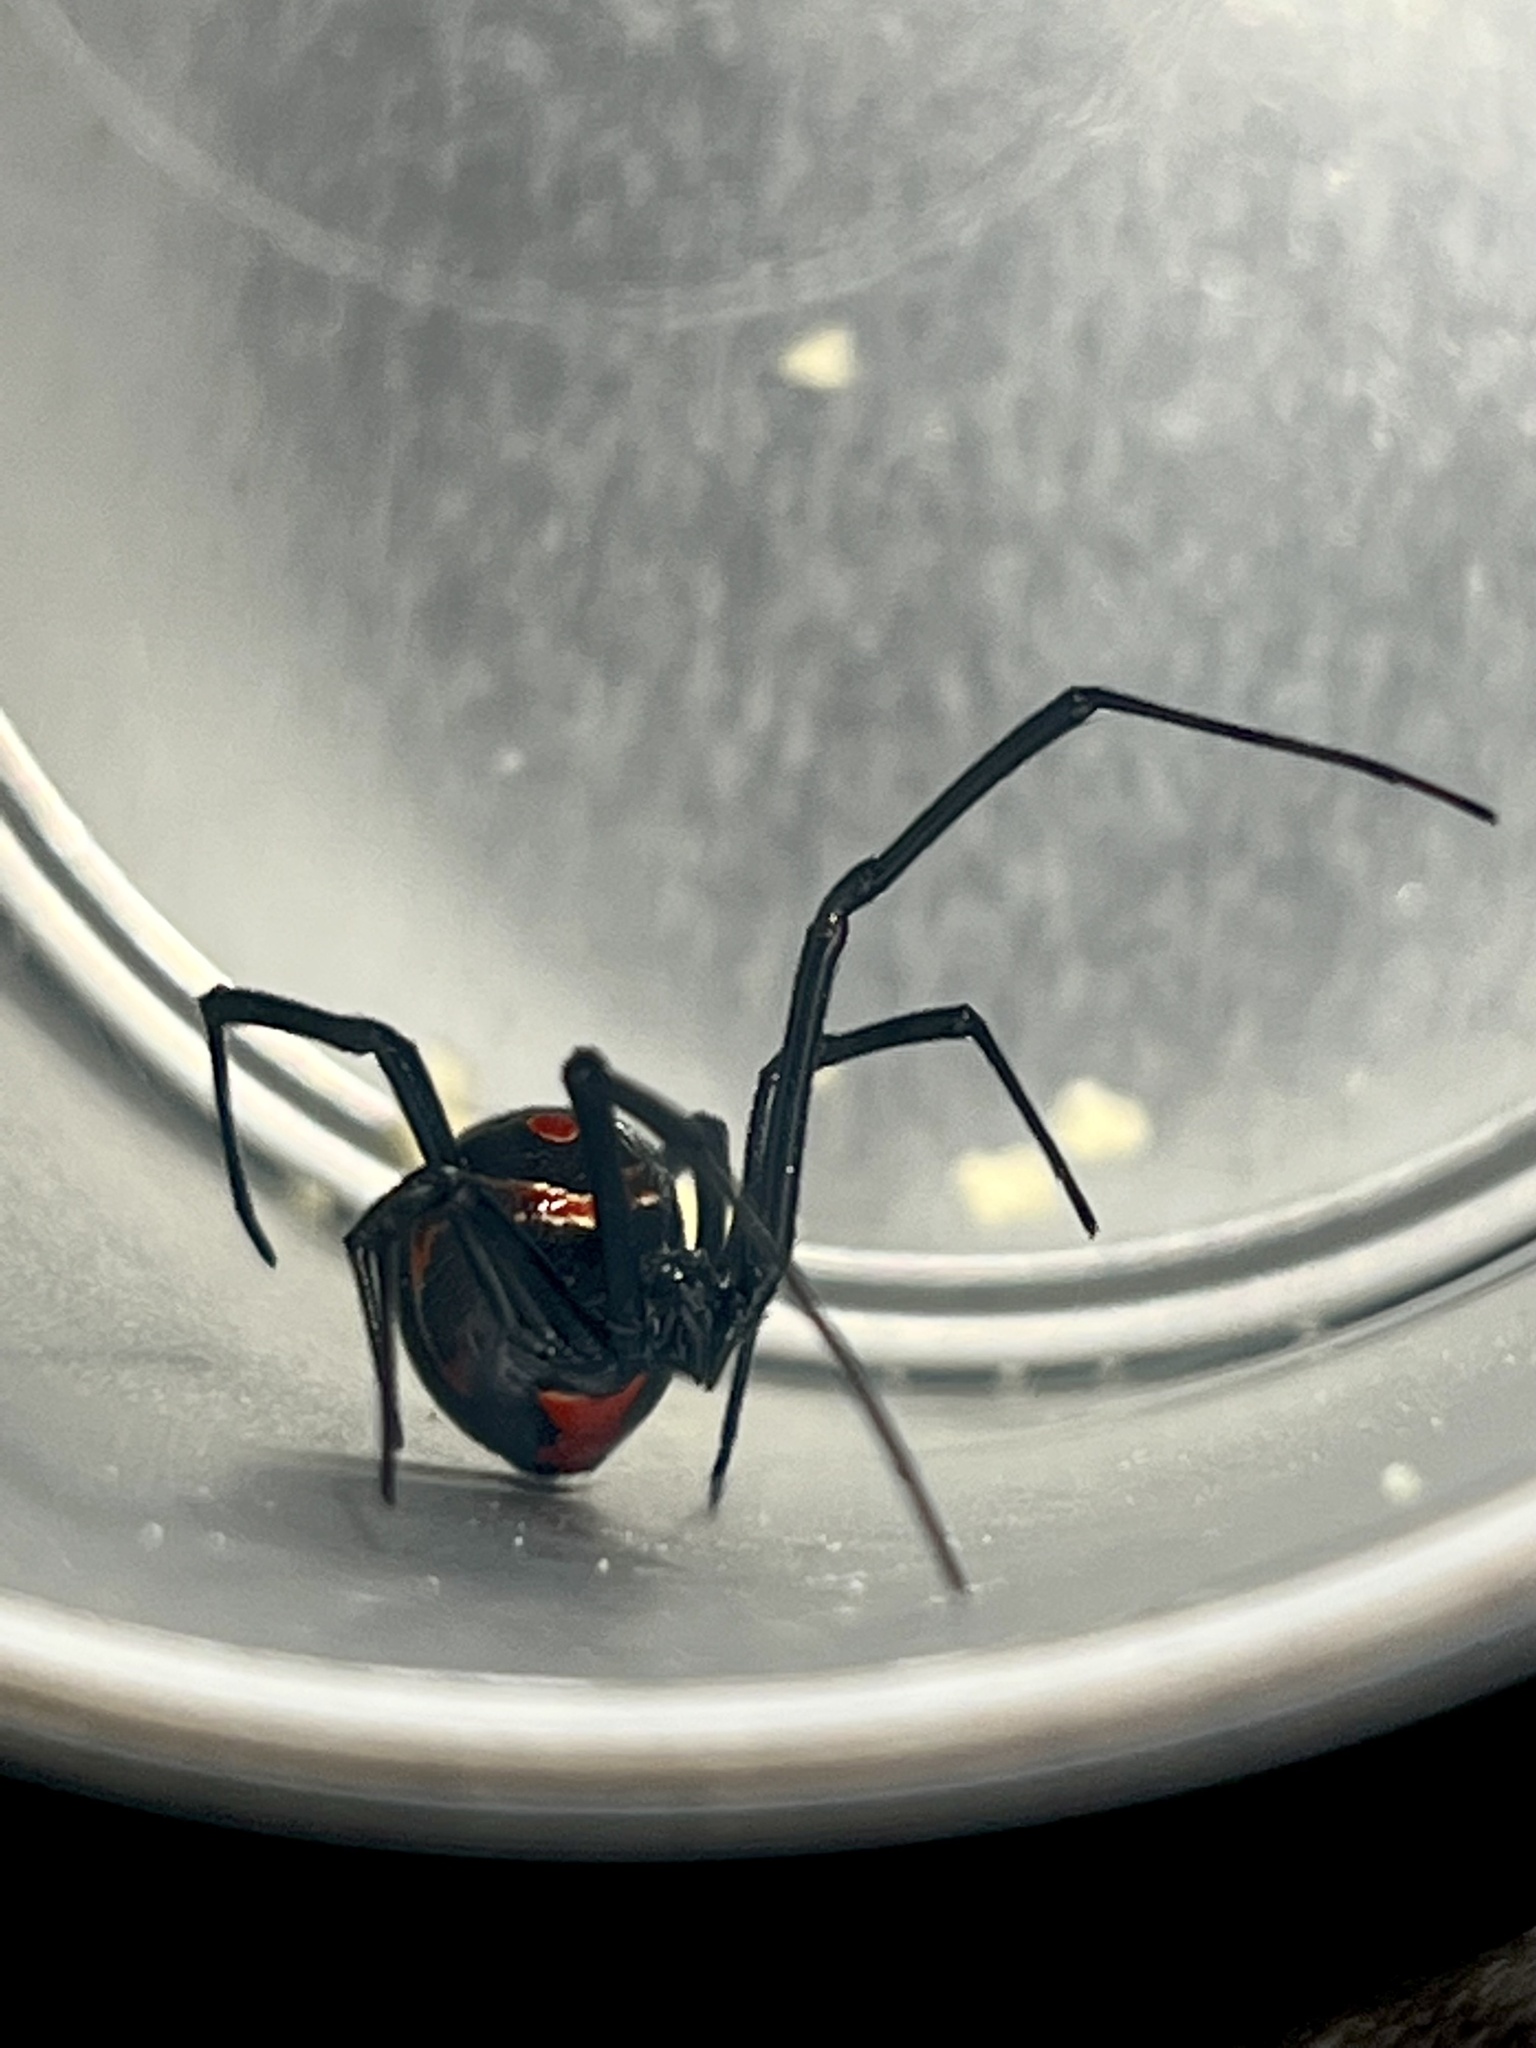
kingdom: Animalia
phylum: Arthropoda
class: Arachnida
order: Araneae
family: Theridiidae
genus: Latrodectus
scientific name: Latrodectus
